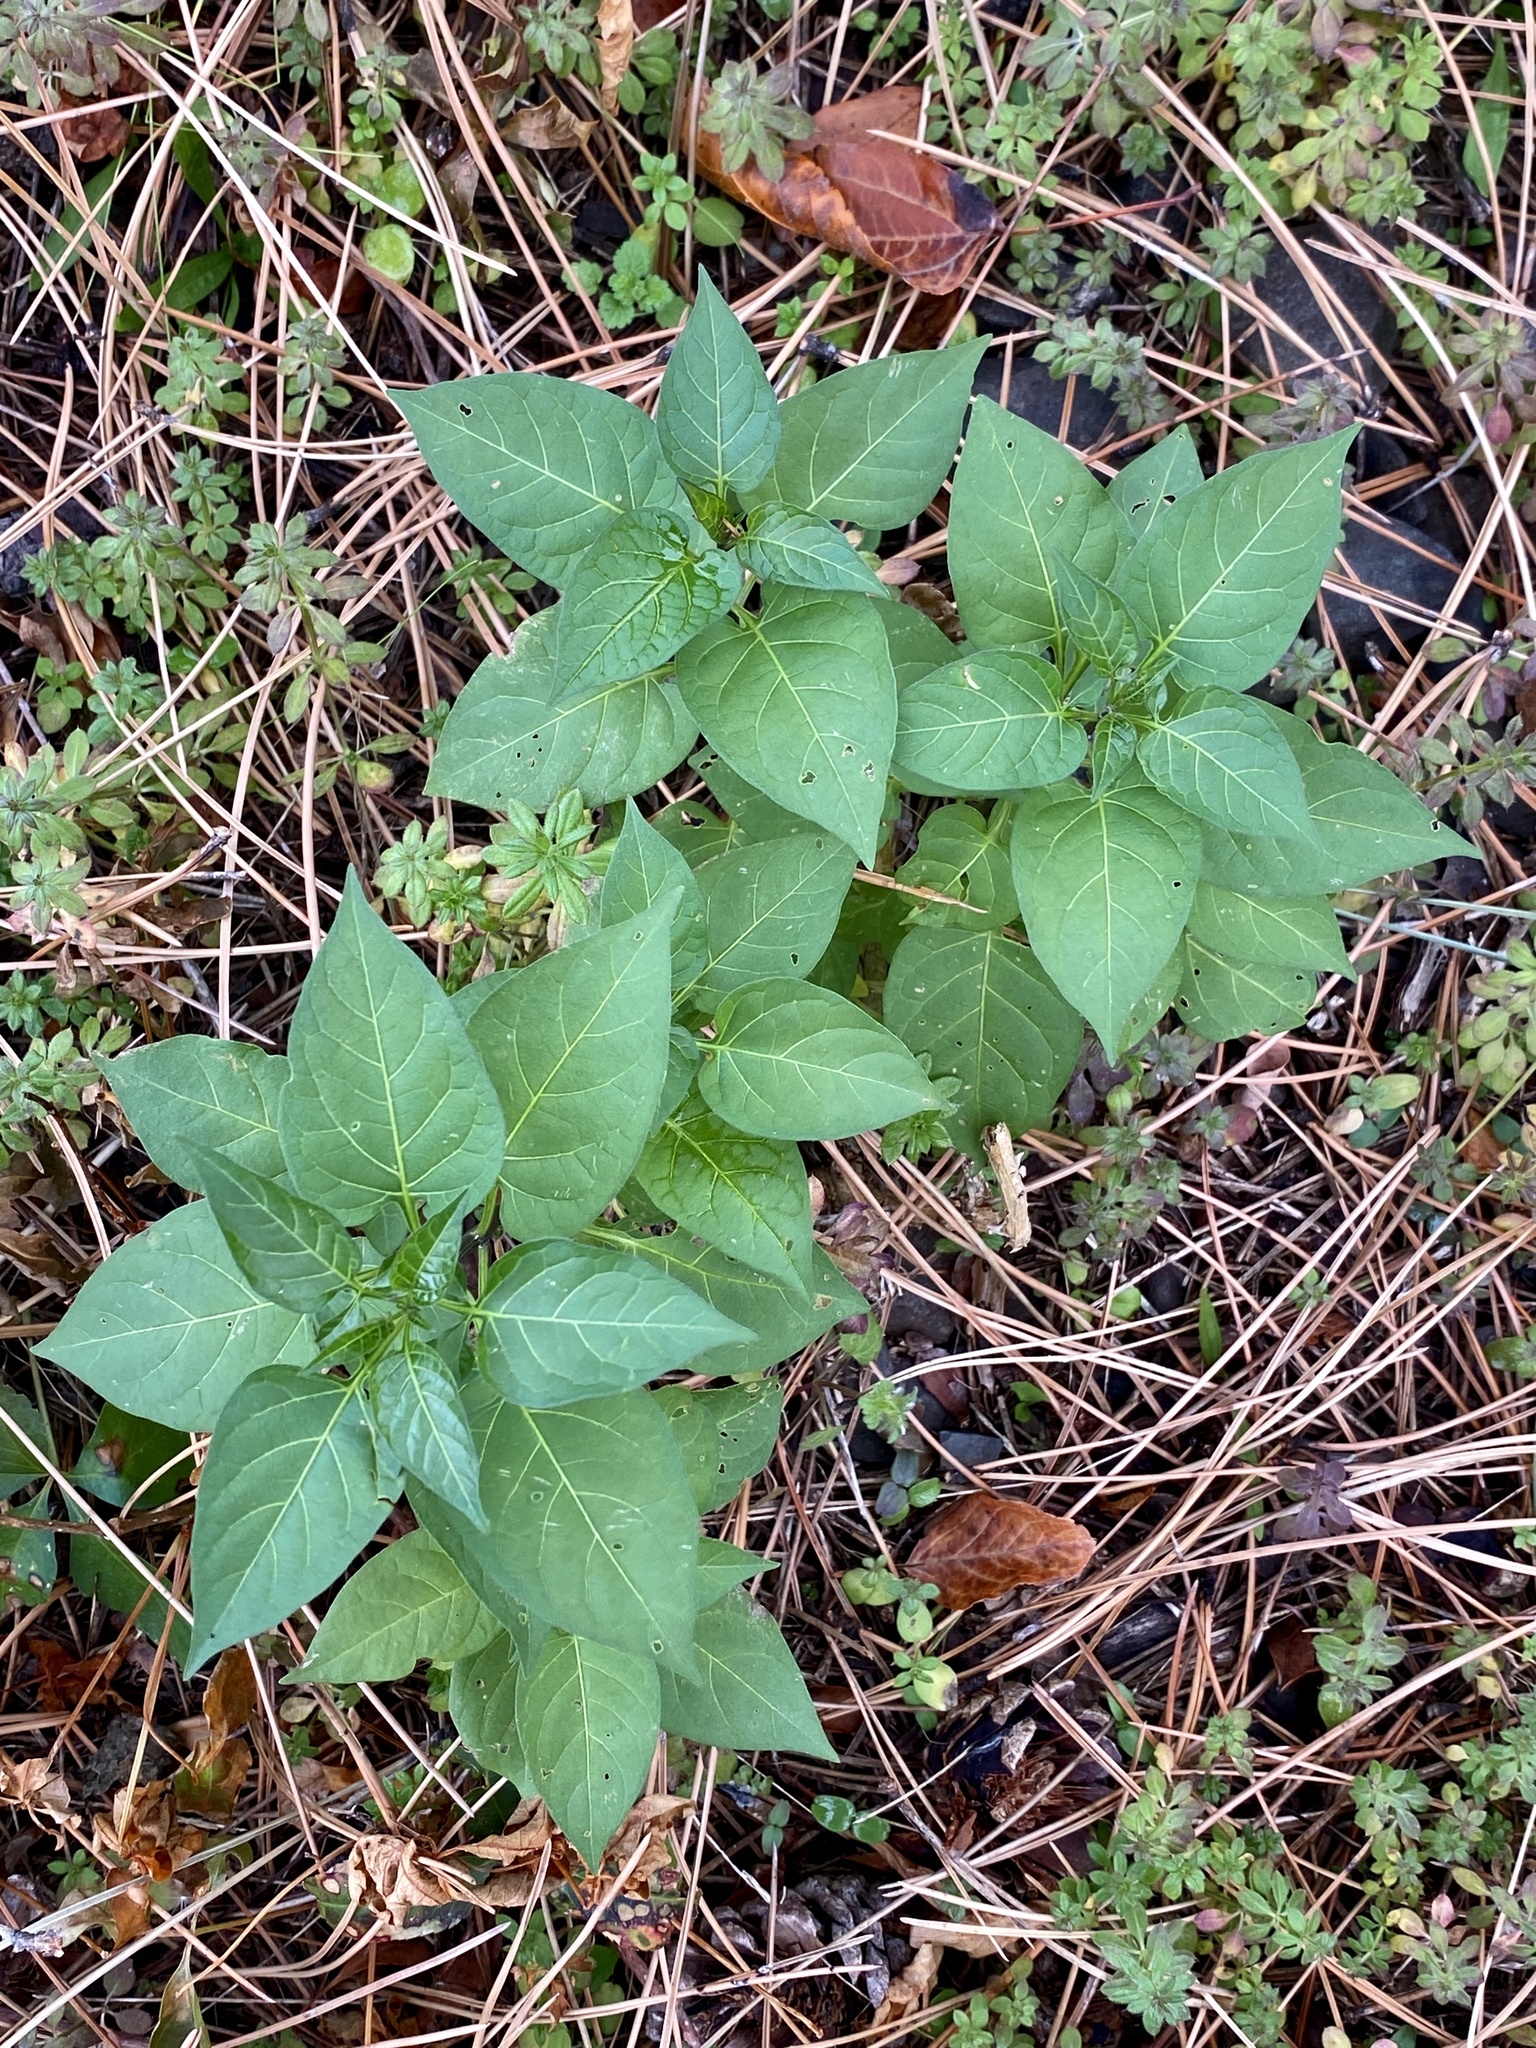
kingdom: Plantae
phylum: Tracheophyta
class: Magnoliopsida
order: Solanales
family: Solanaceae
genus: Solanum
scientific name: Solanum dulcamara
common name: Climbing nightshade
